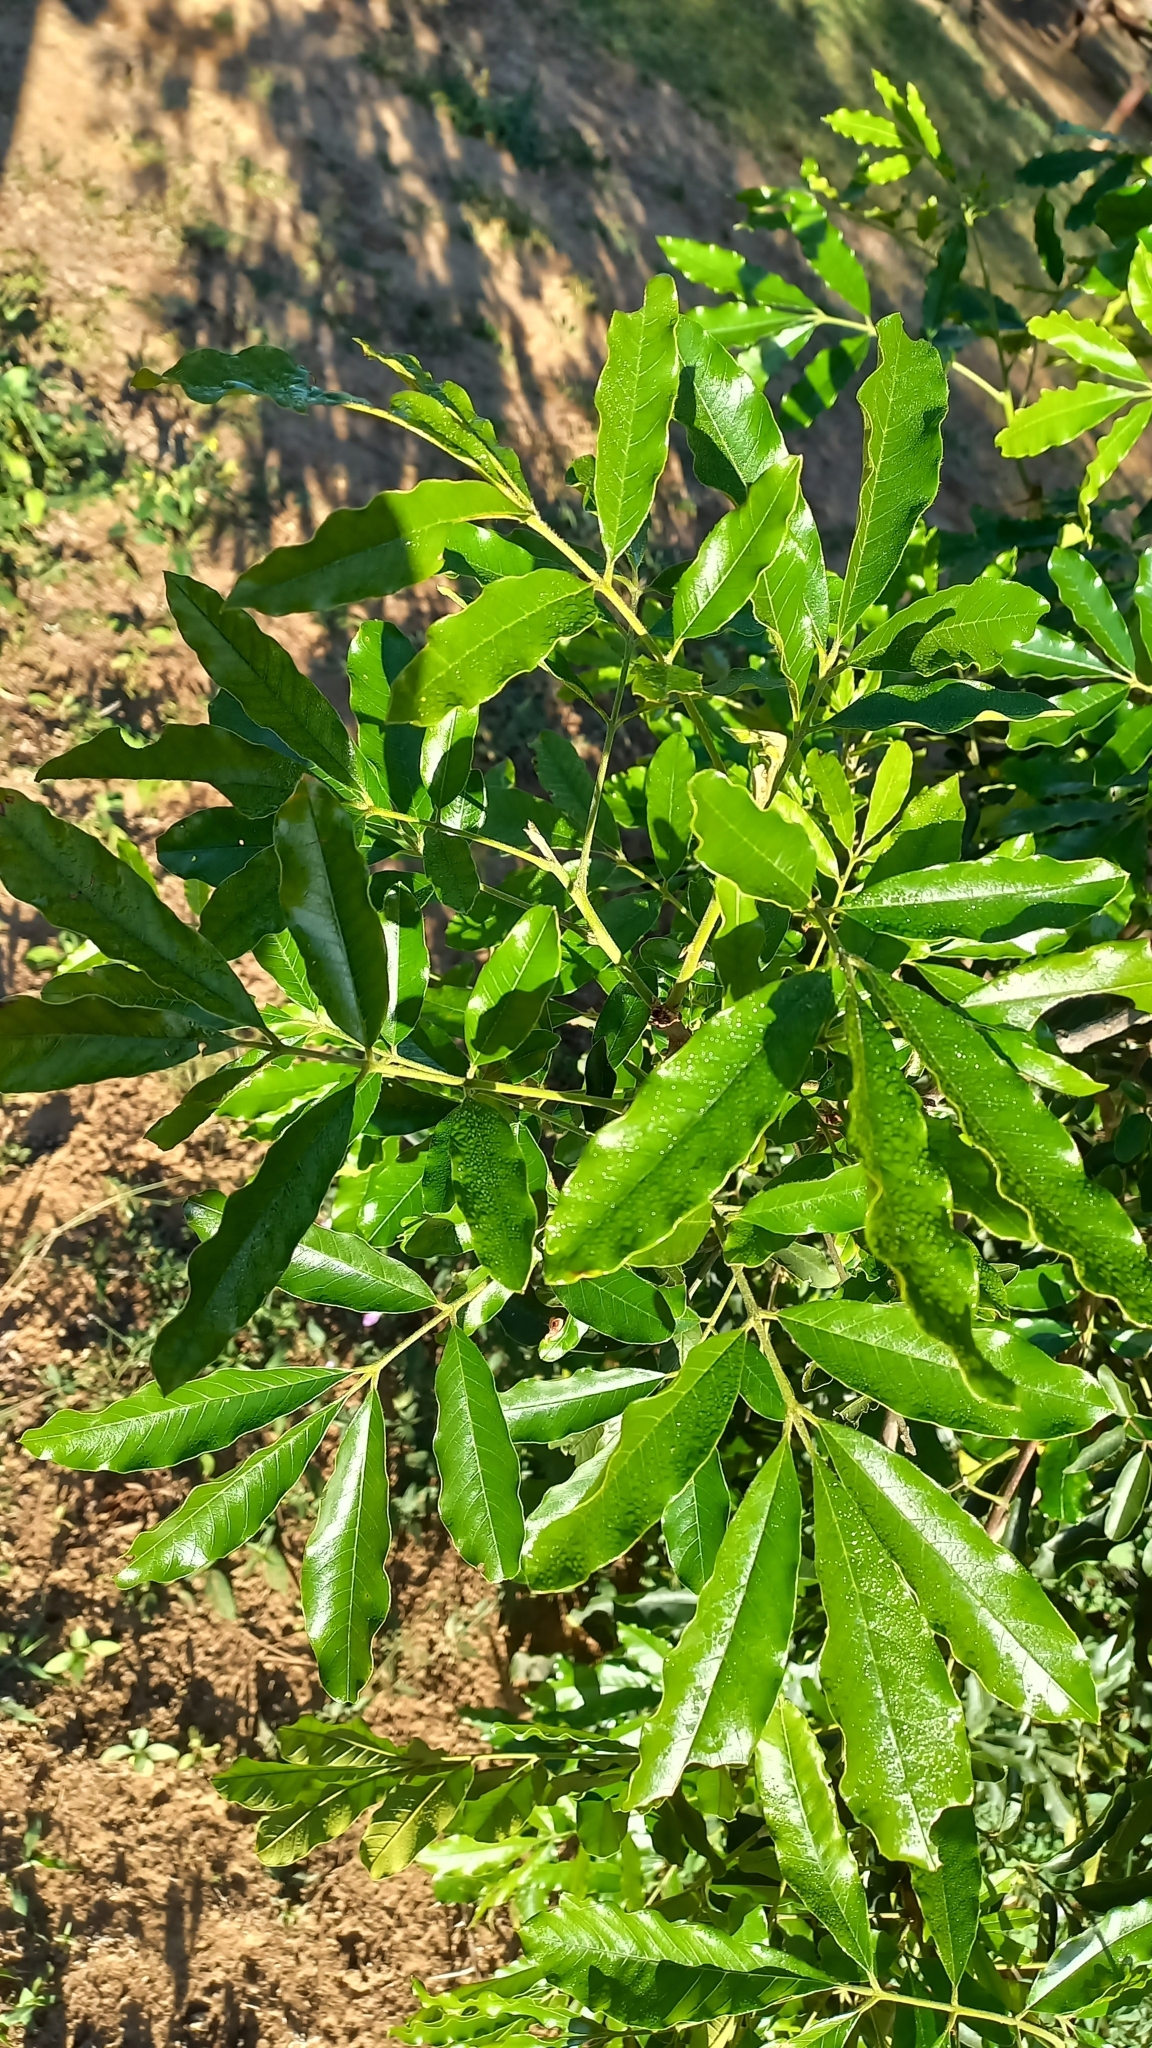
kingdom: Plantae
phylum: Tracheophyta
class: Magnoliopsida
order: Sapindales
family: Meliaceae
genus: Trichilia
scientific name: Trichilia emetica
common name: Christmas-bells
